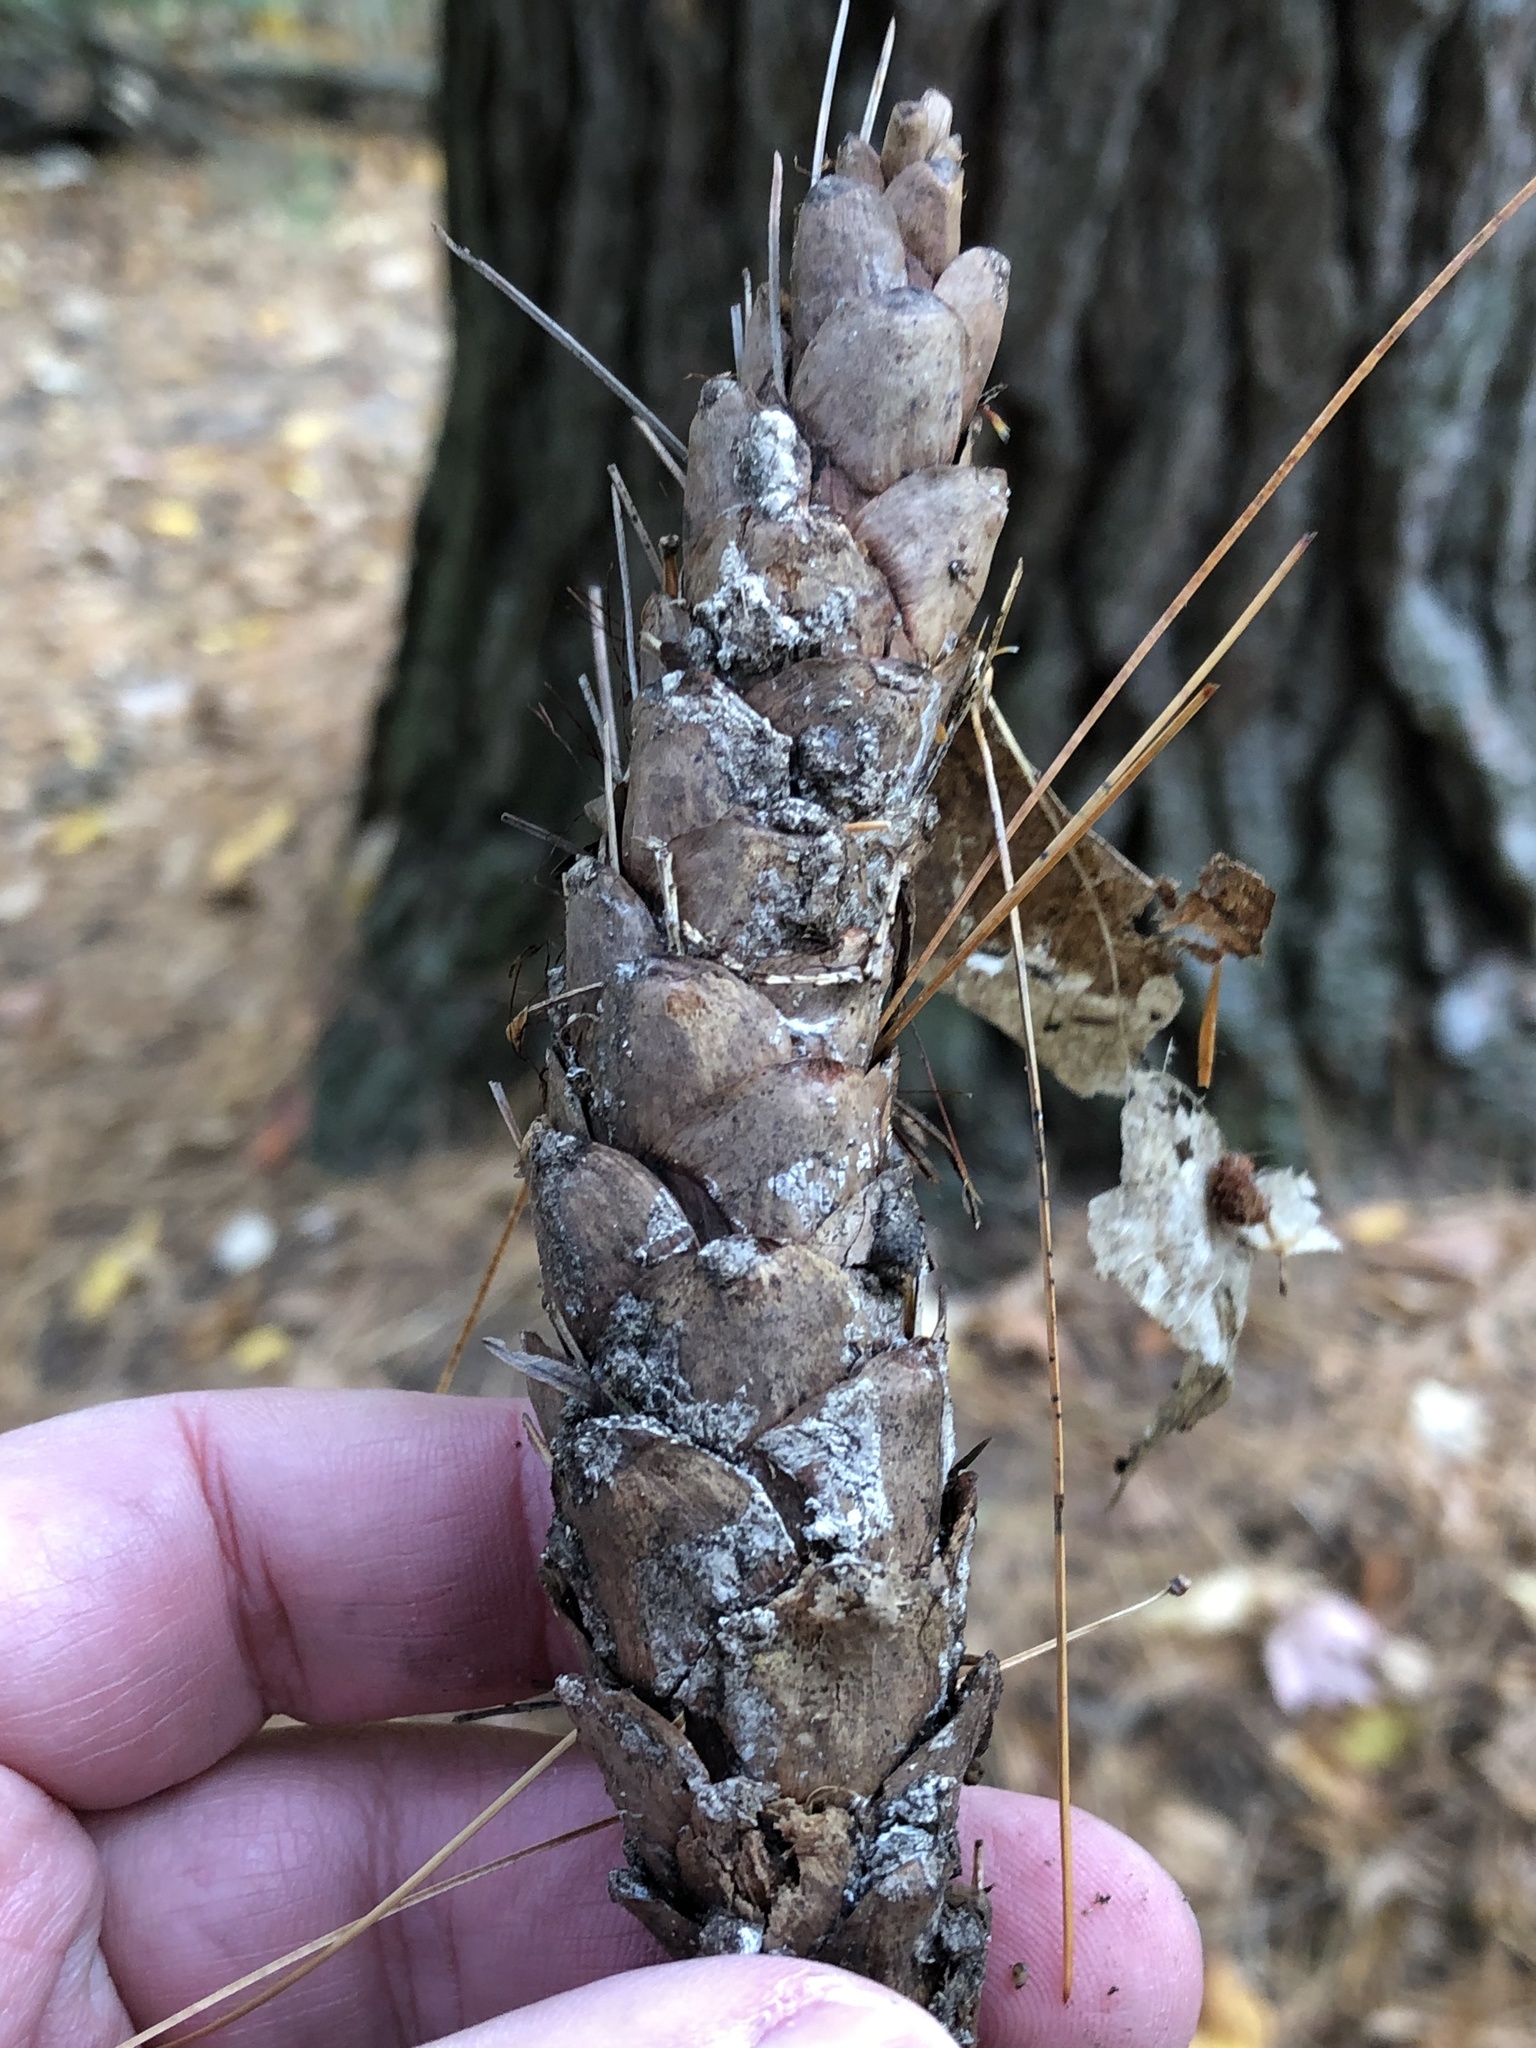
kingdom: Plantae
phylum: Tracheophyta
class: Pinopsida
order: Pinales
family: Pinaceae
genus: Pinus
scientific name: Pinus strobus
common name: Weymouth pine
